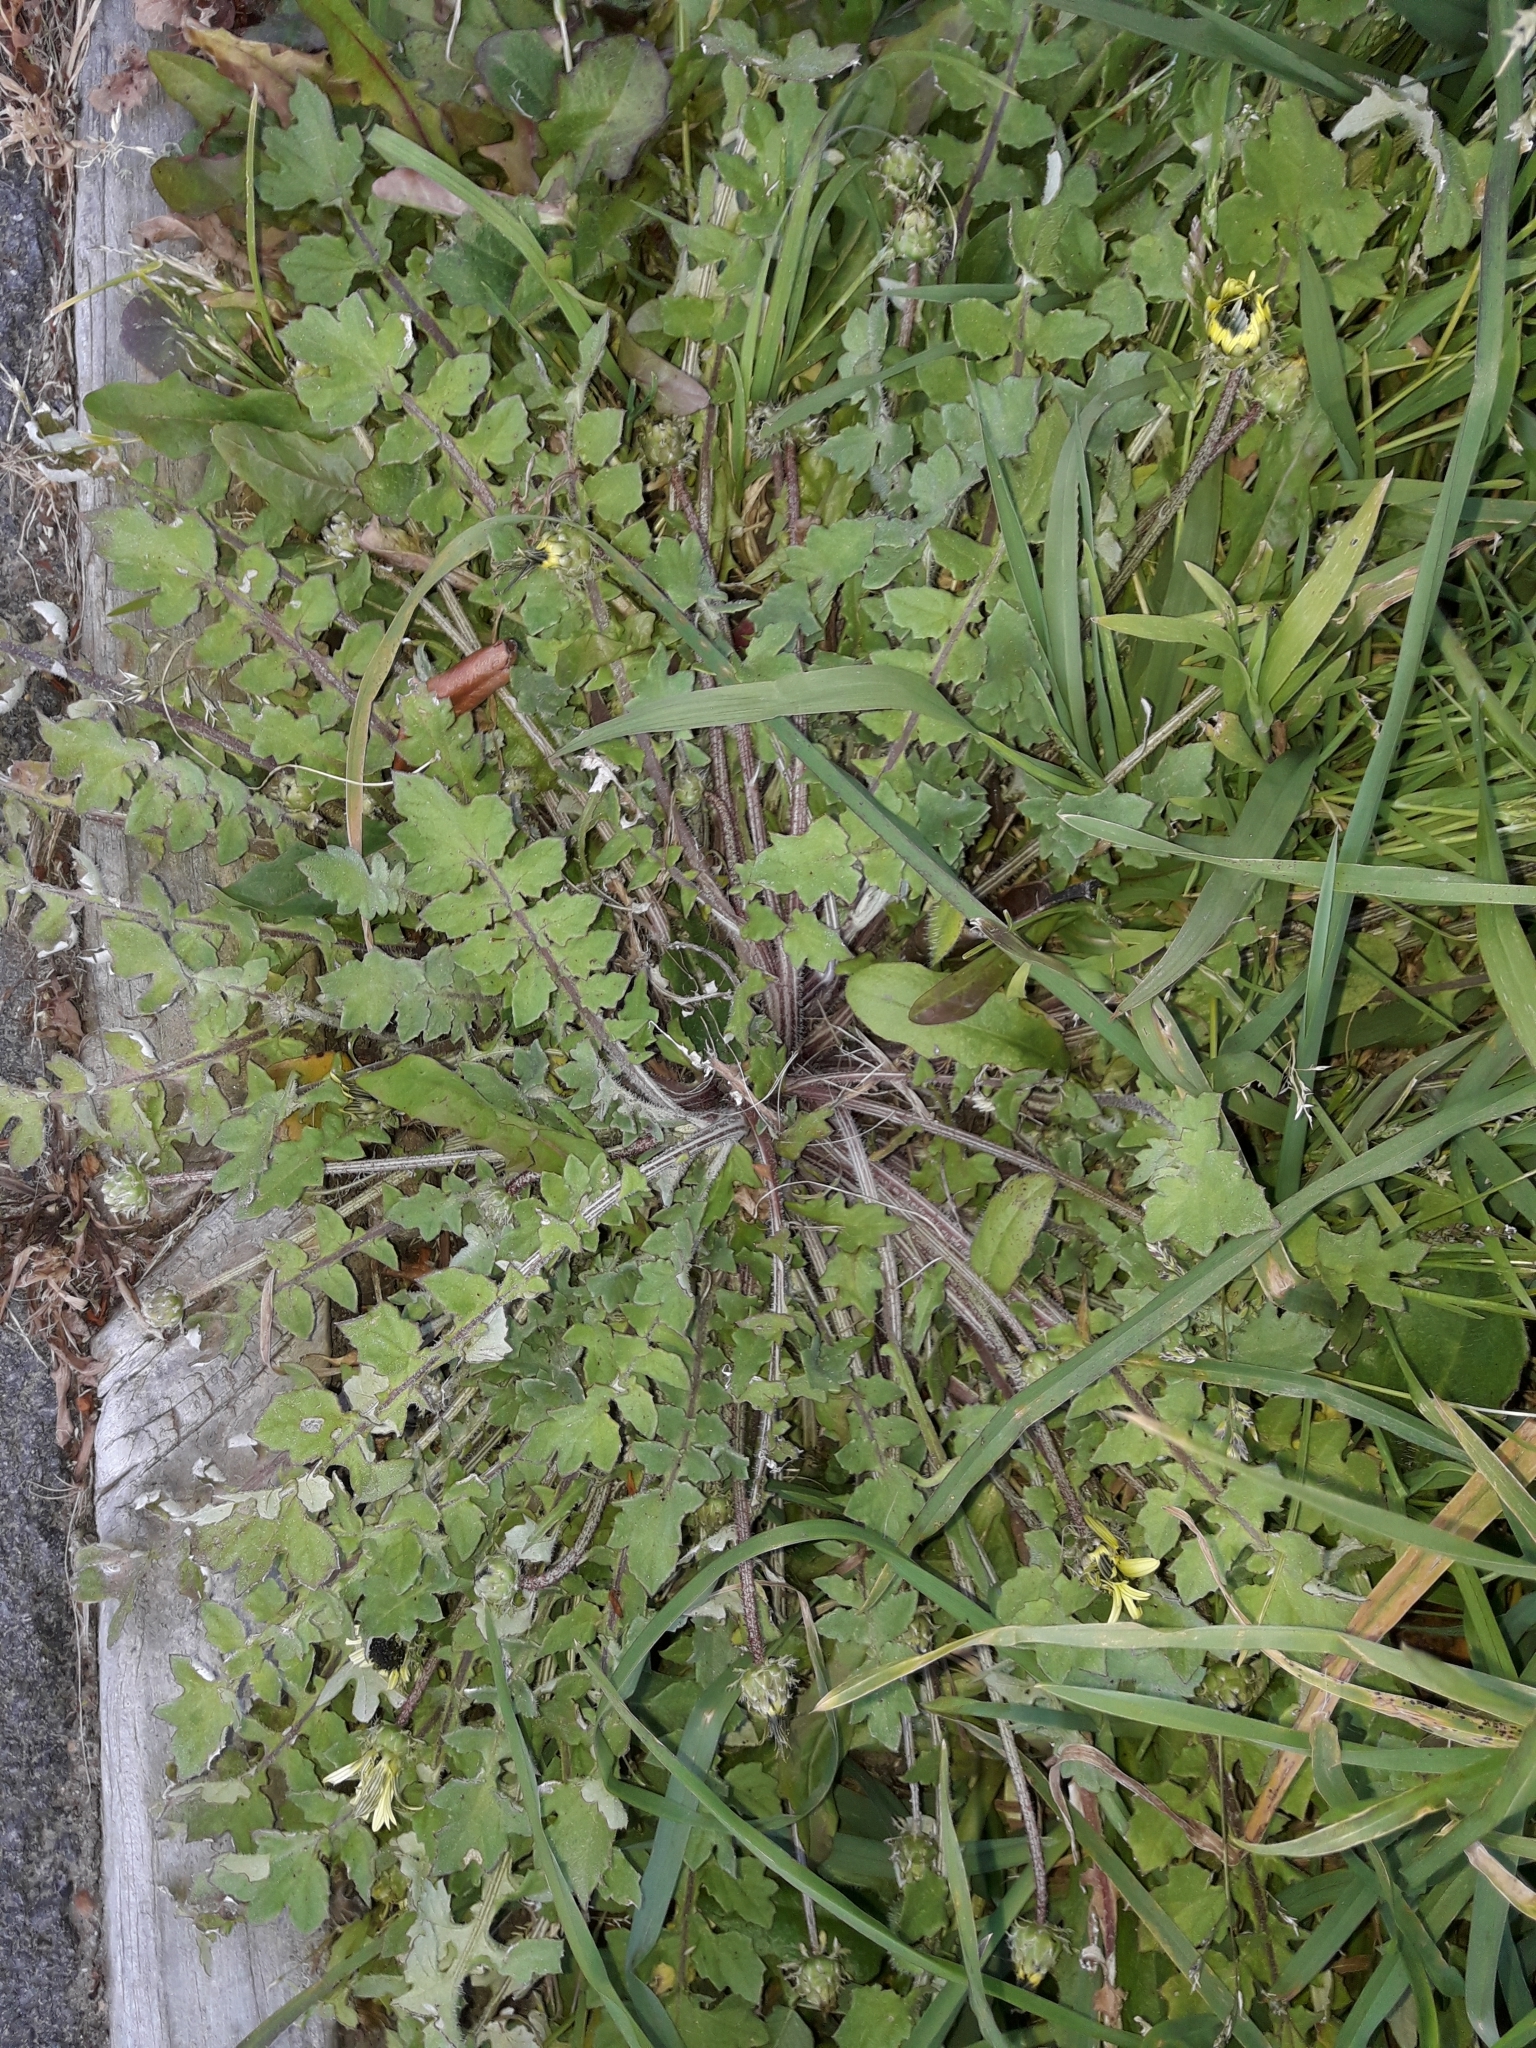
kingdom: Plantae
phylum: Tracheophyta
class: Magnoliopsida
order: Asterales
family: Asteraceae
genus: Arctotheca
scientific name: Arctotheca calendula
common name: Capeweed
